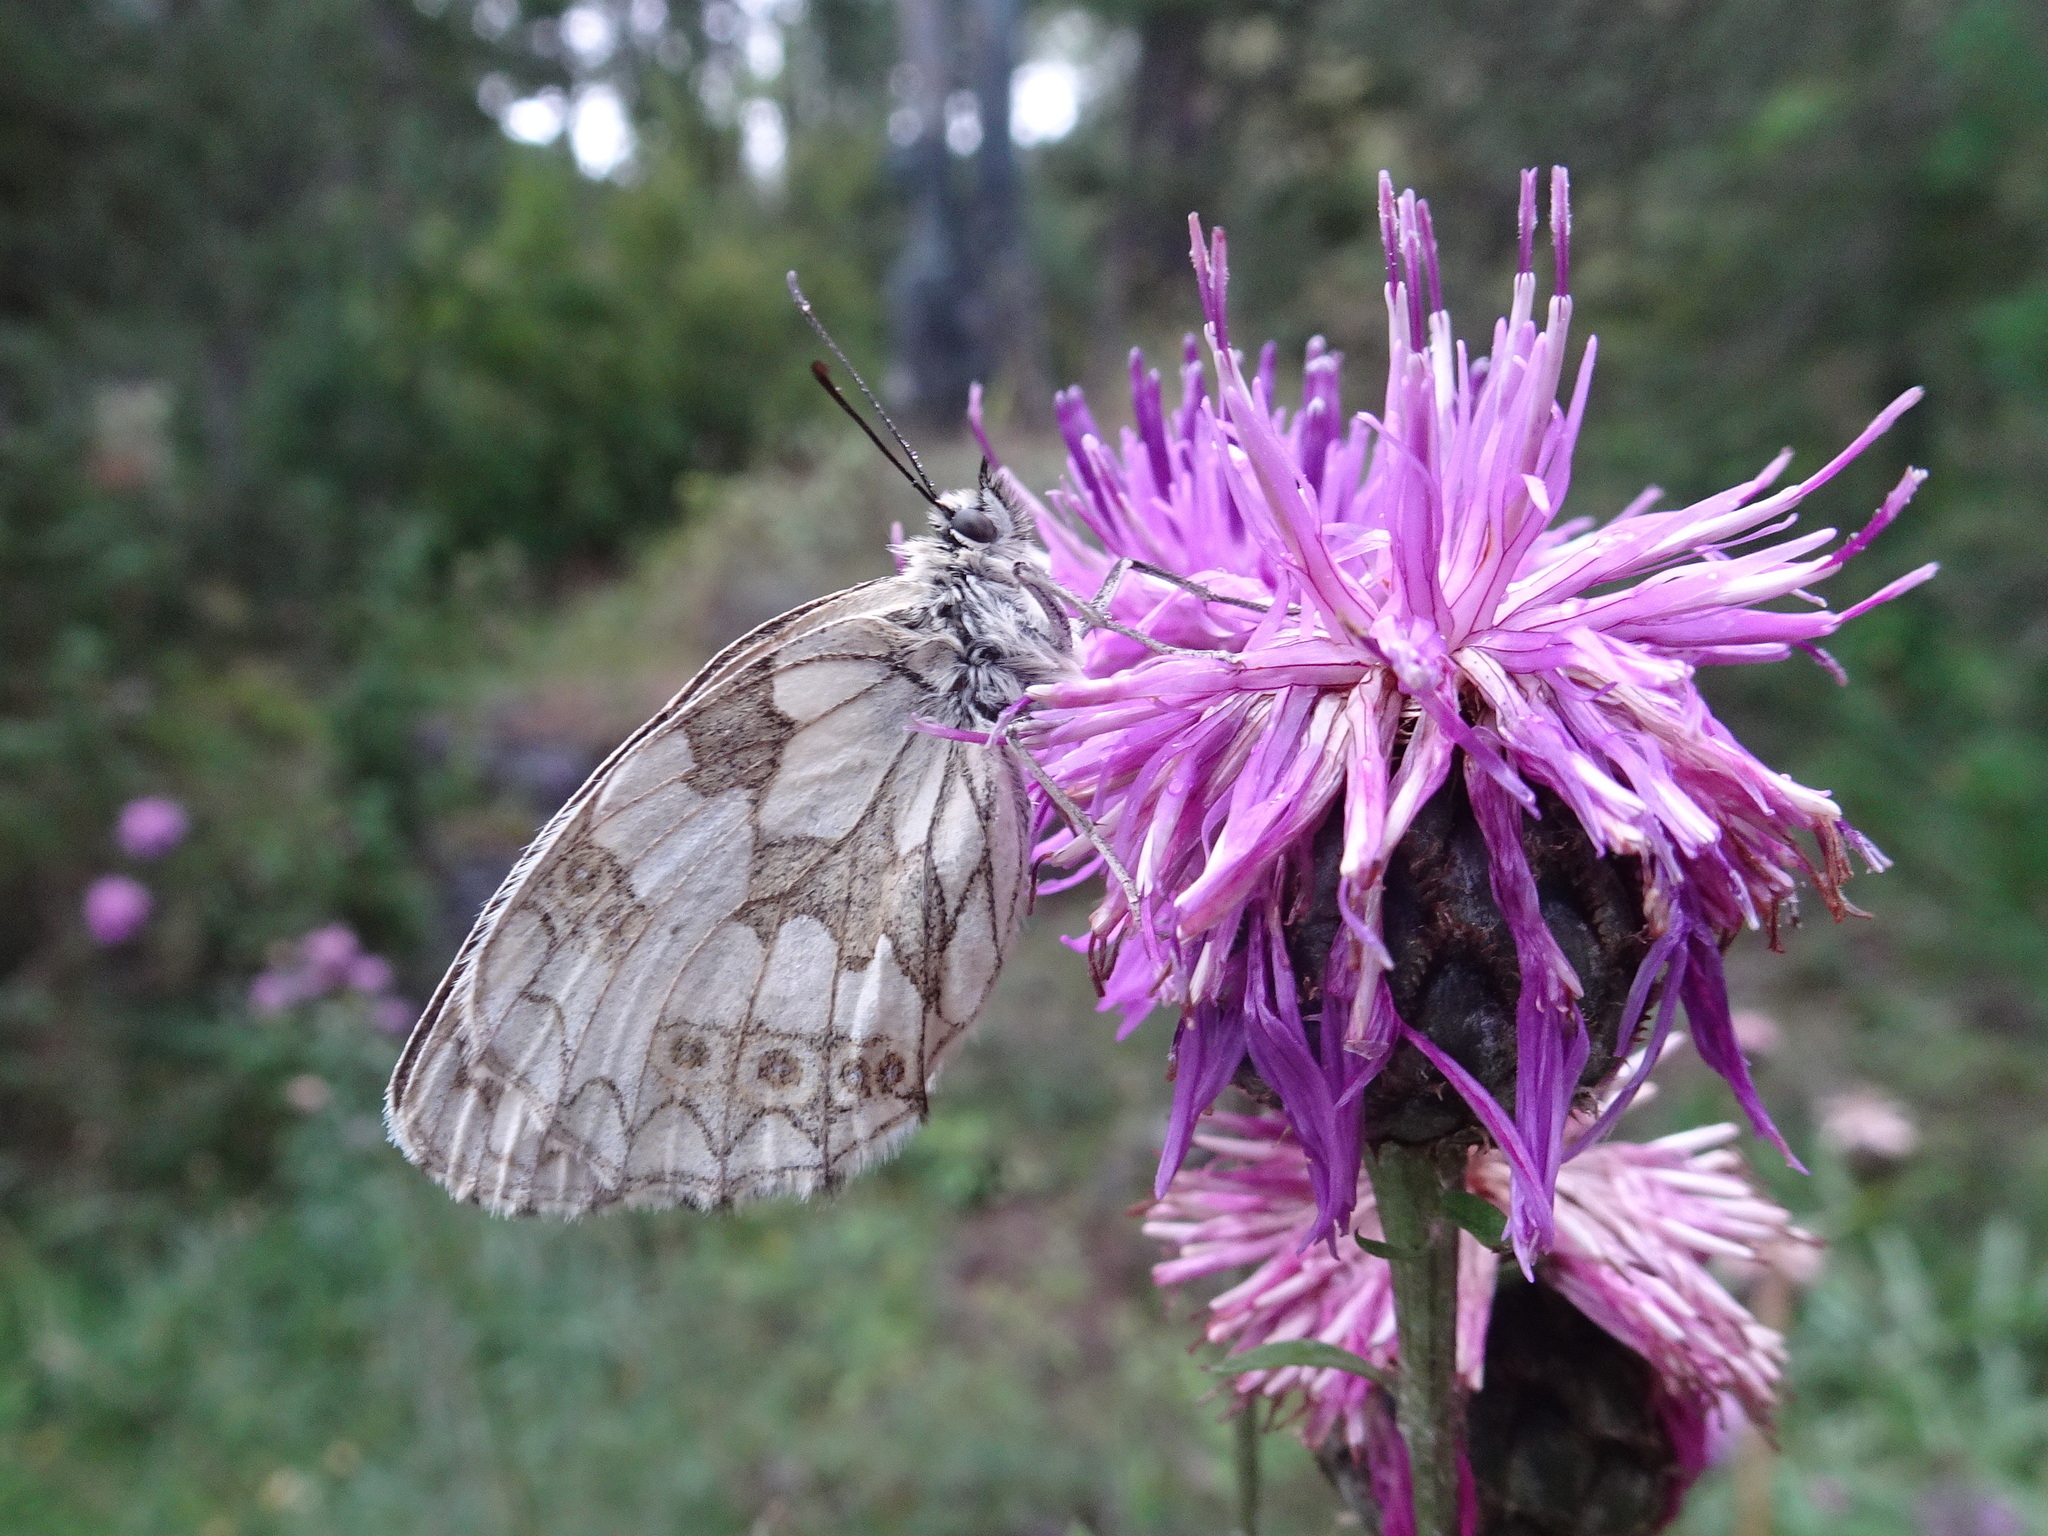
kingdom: Animalia
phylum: Arthropoda
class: Insecta
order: Lepidoptera
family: Nymphalidae
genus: Melanargia
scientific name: Melanargia galathea
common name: Marbled white
